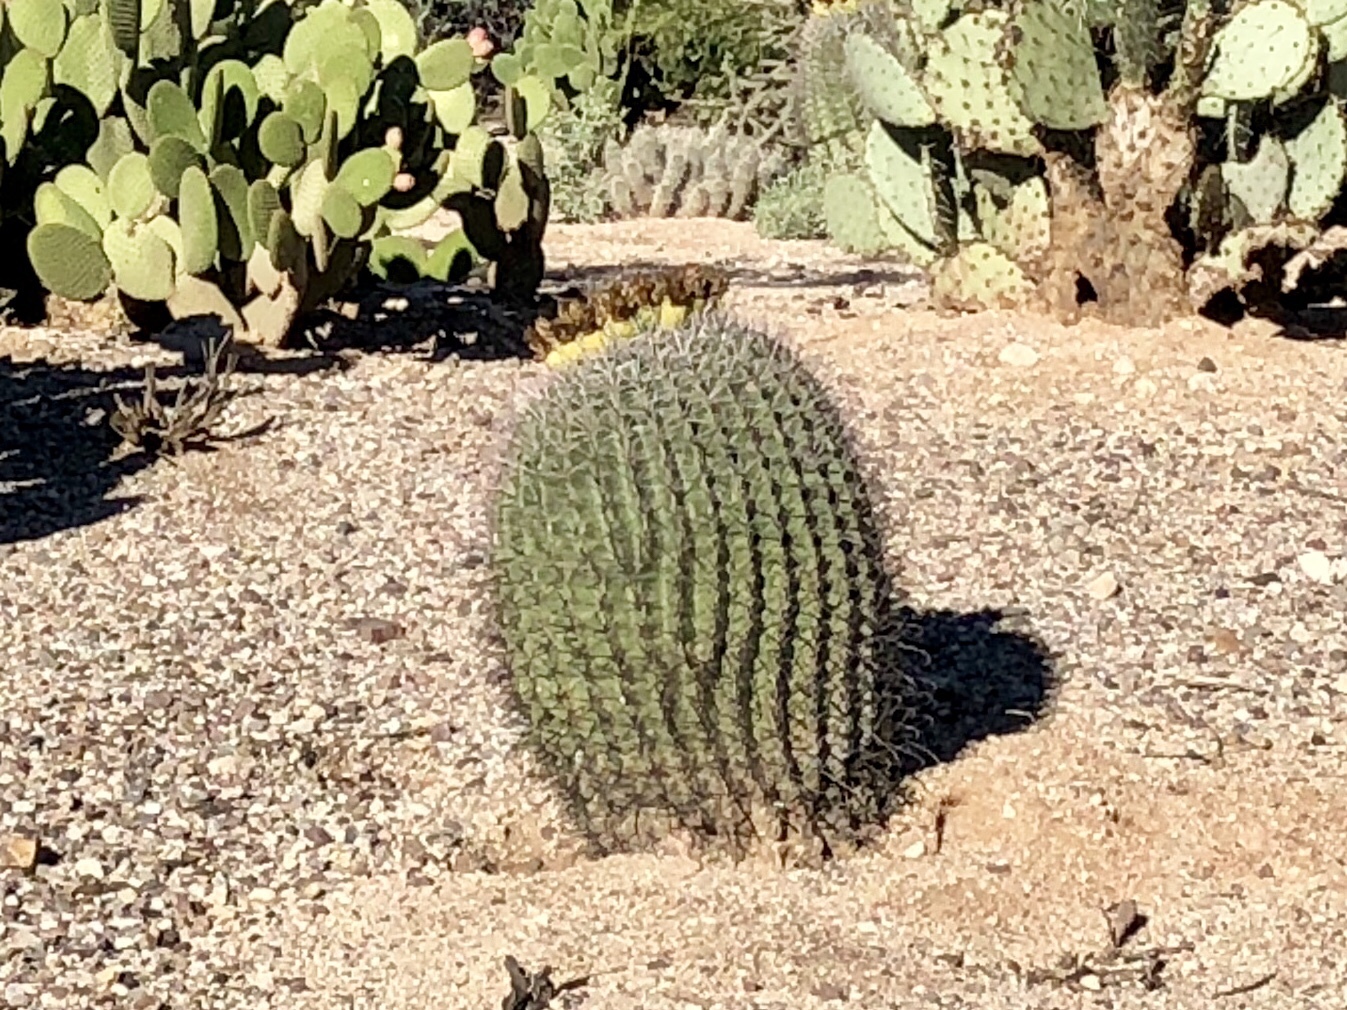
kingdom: Plantae
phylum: Tracheophyta
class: Magnoliopsida
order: Caryophyllales
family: Cactaceae
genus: Ferocactus
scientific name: Ferocactus wislizeni
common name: Candy barrel cactus
